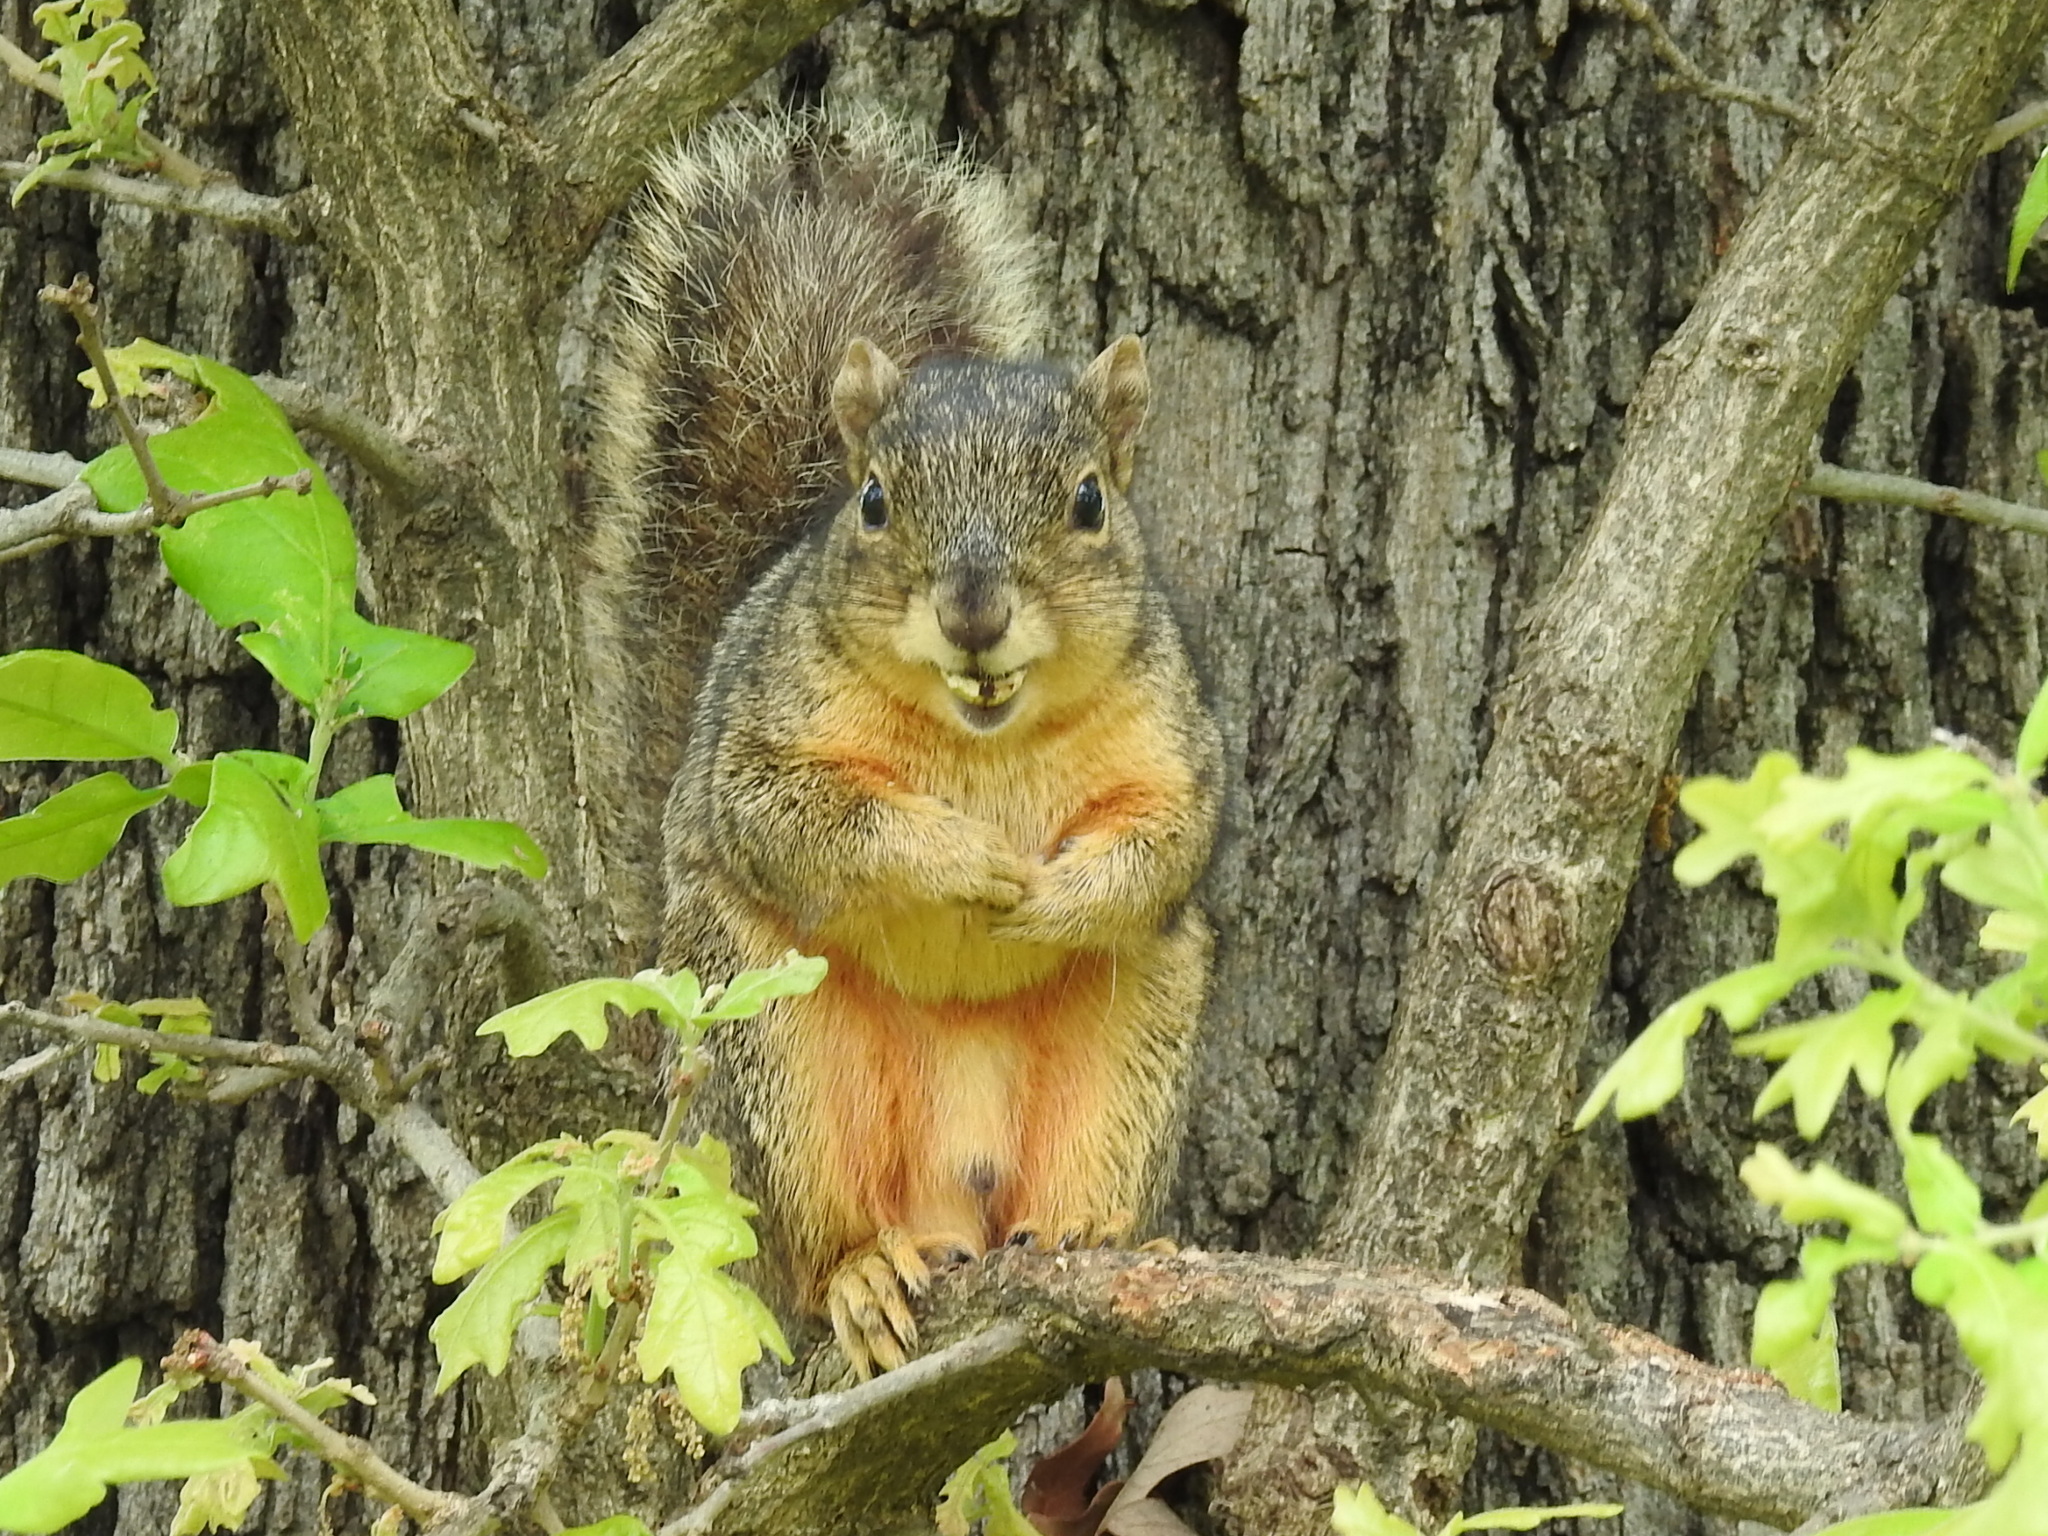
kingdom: Animalia
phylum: Chordata
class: Mammalia
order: Rodentia
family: Sciuridae
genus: Sciurus
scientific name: Sciurus niger
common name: Fox squirrel
